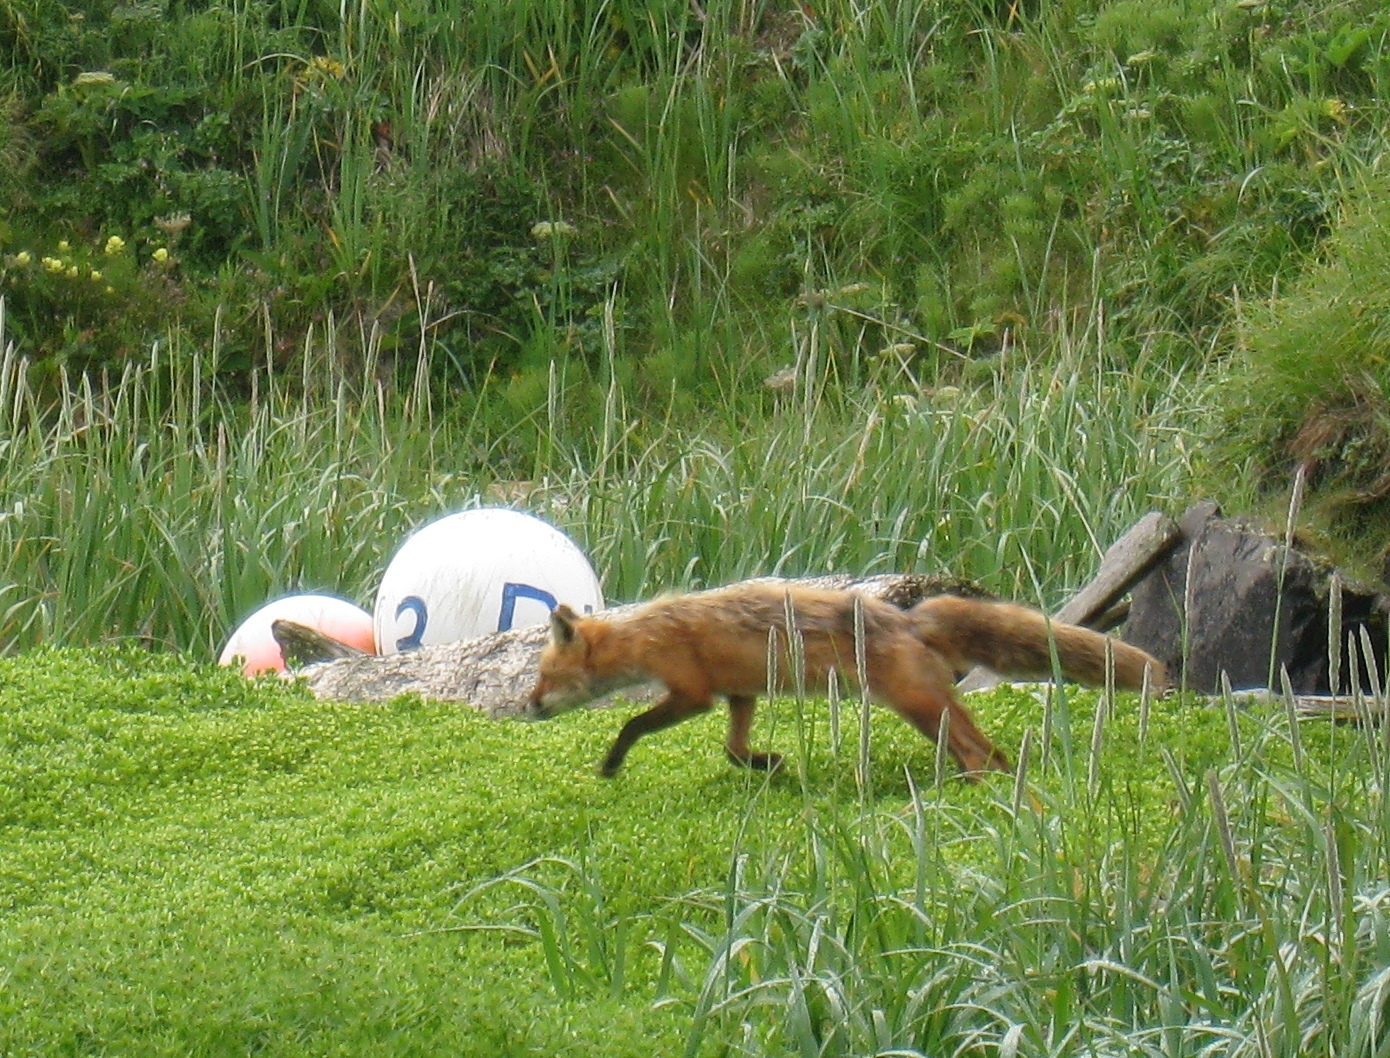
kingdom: Animalia
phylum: Chordata
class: Mammalia
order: Carnivora
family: Canidae
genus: Vulpes
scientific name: Vulpes vulpes
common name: Red fox
